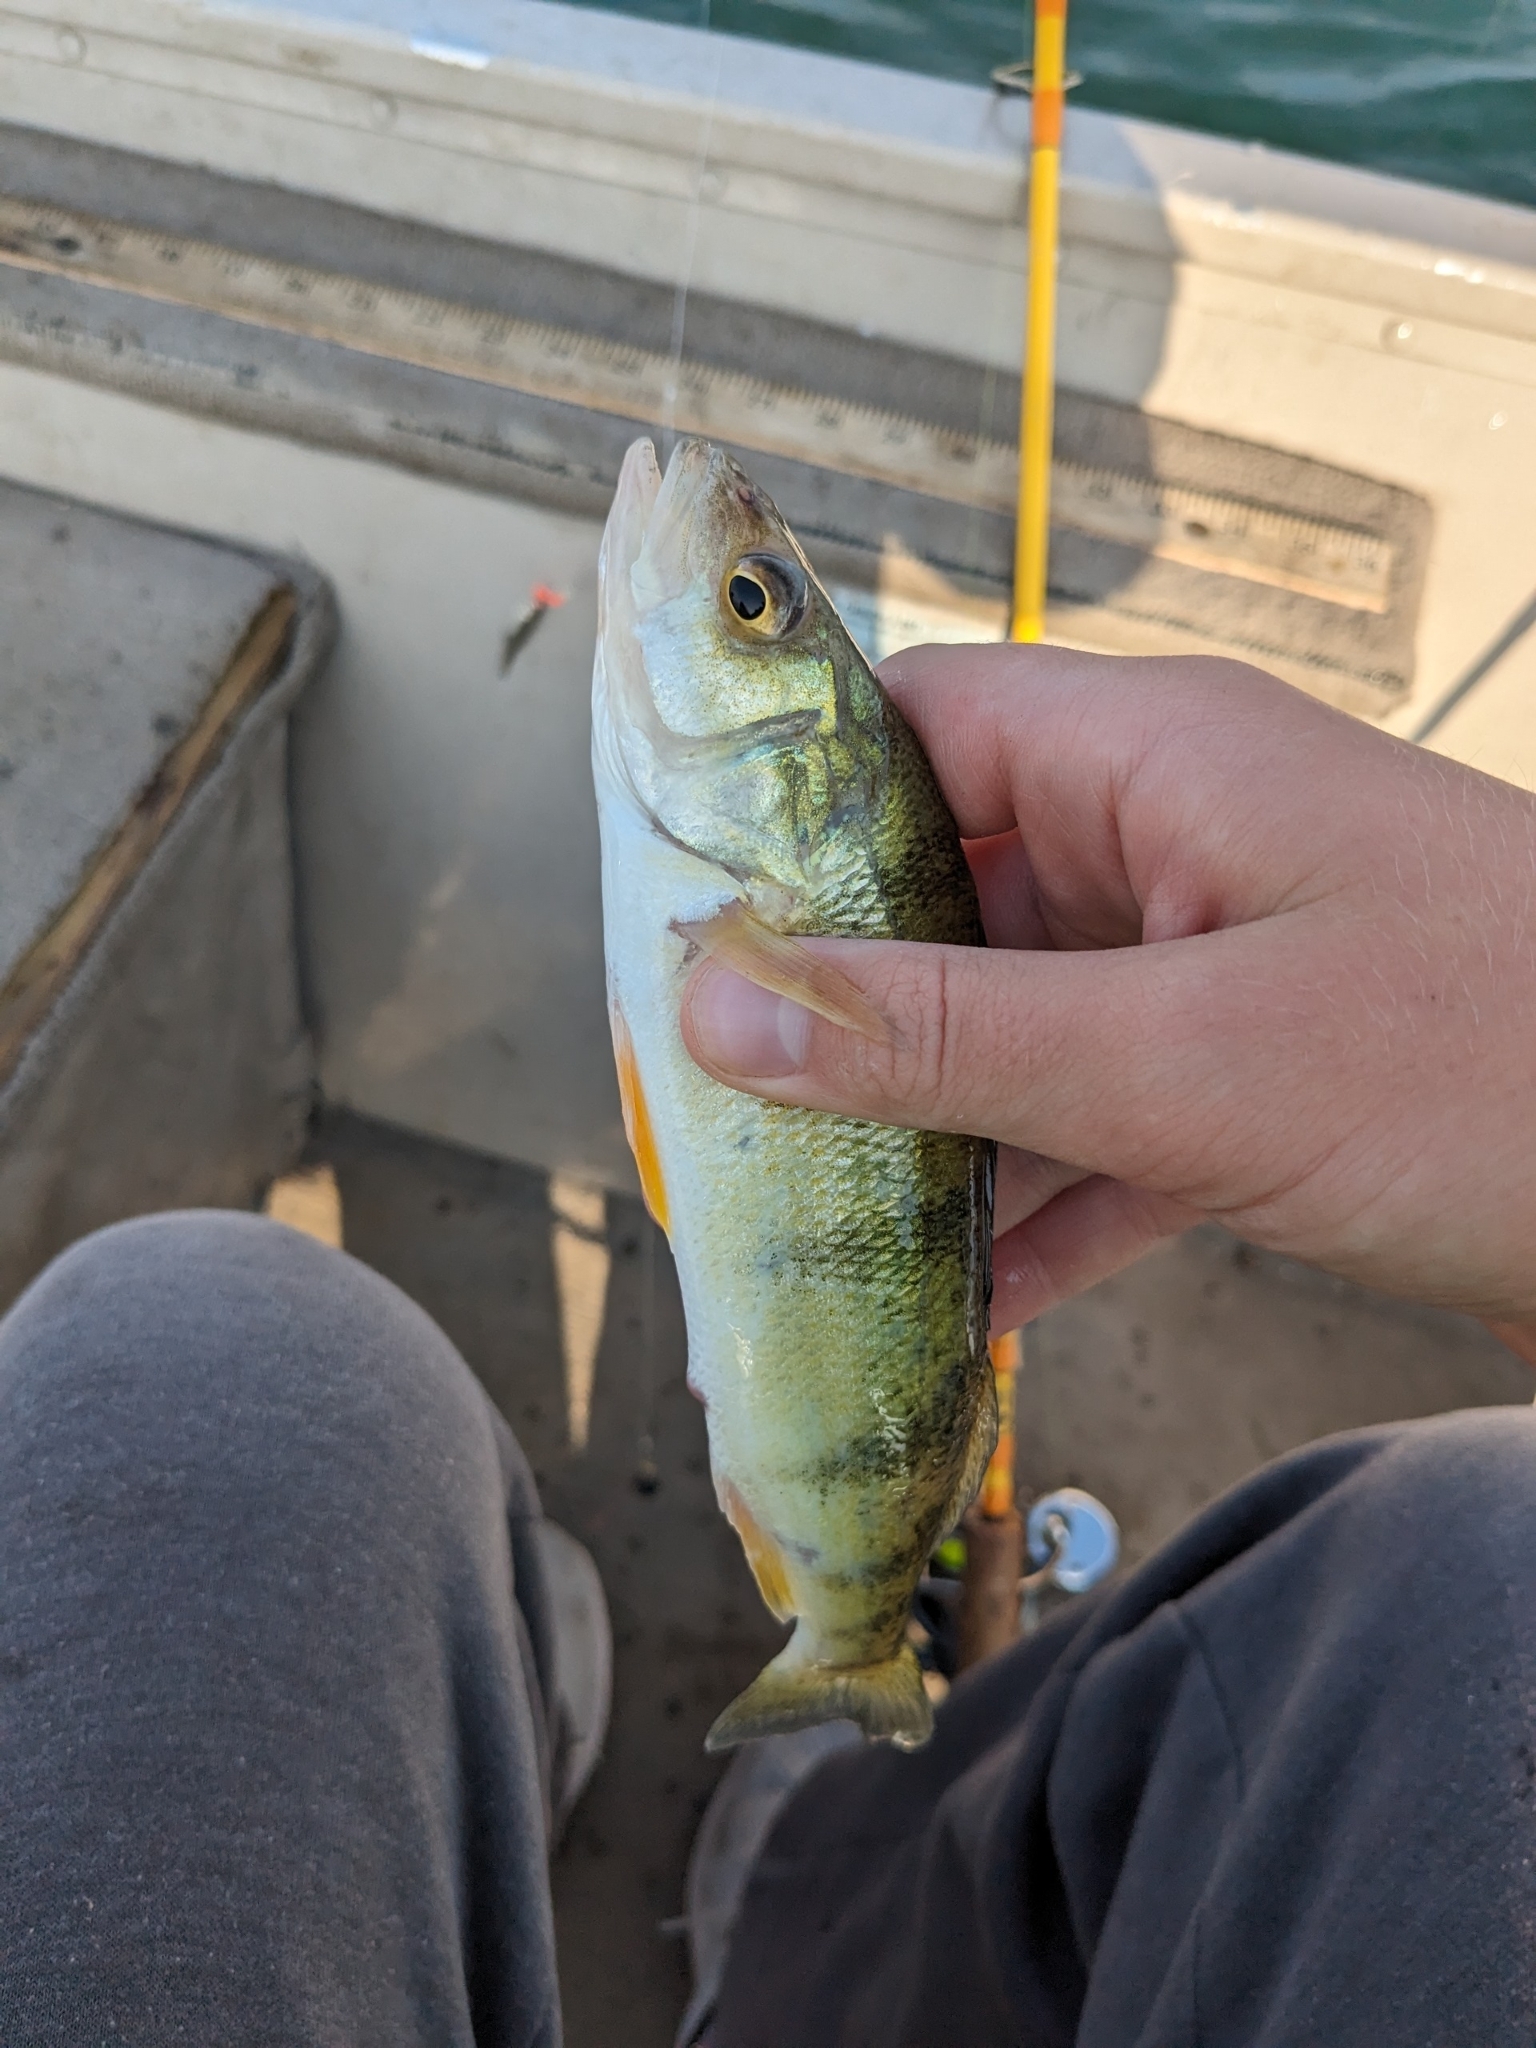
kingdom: Animalia
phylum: Chordata
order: Perciformes
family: Percidae
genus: Perca
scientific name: Perca flavescens
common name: Yellow perch
